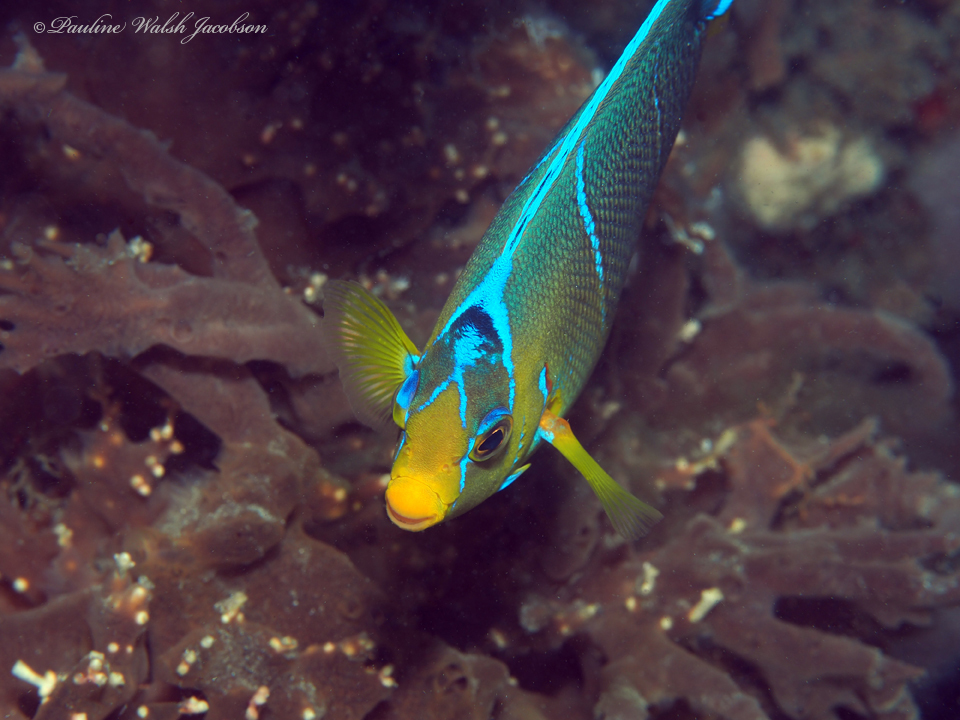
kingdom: Animalia
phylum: Chordata
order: Perciformes
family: Pomacanthidae
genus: Holacanthus
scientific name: Holacanthus ciliaris
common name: Queen angelfish
